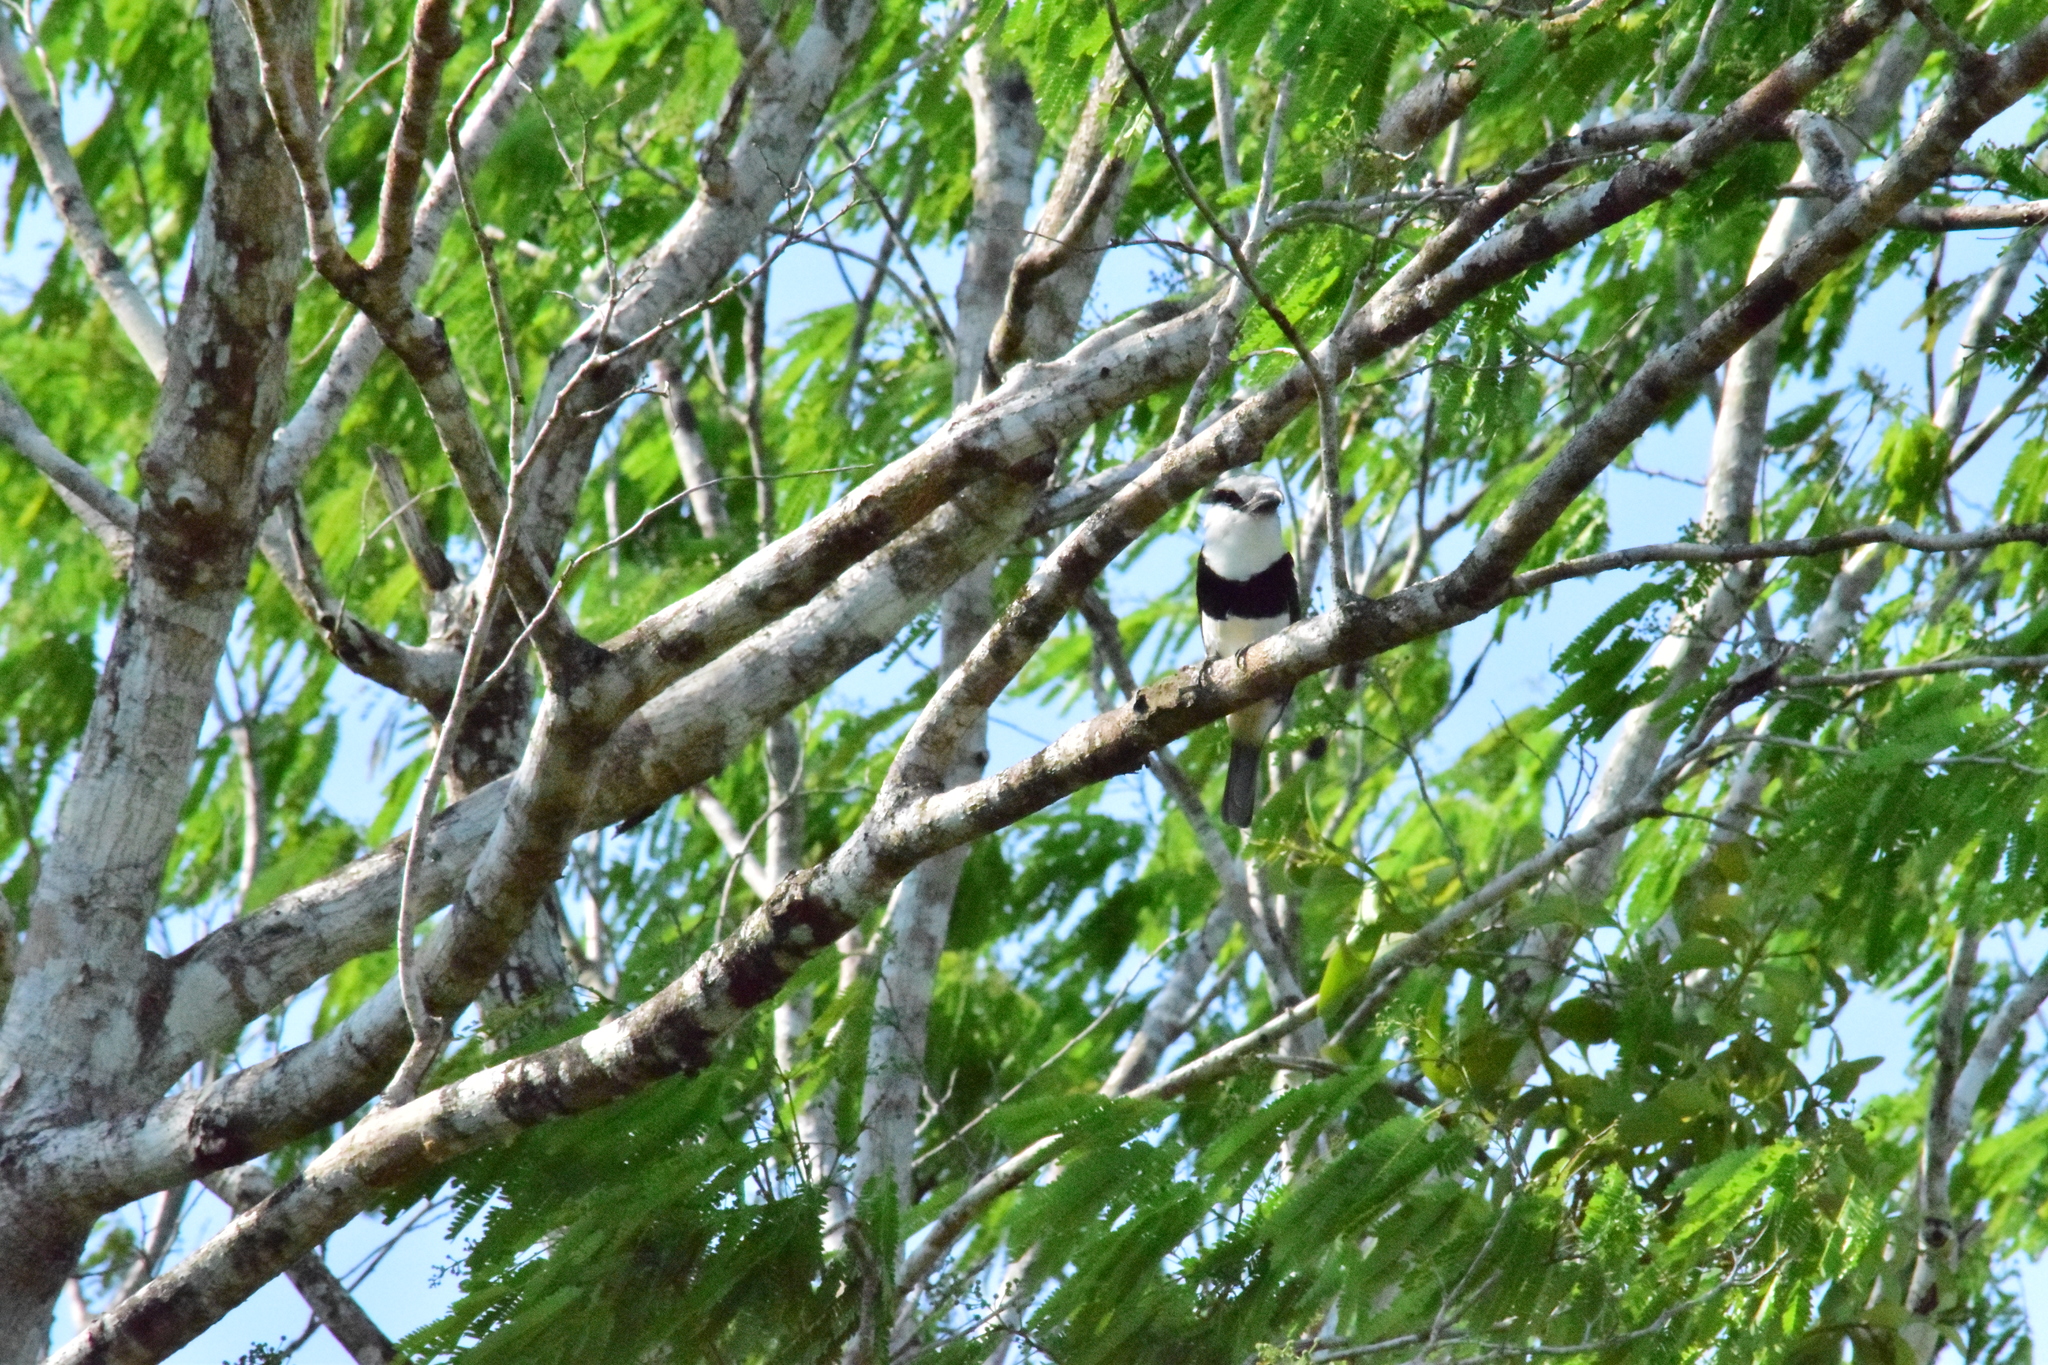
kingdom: Animalia
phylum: Chordata
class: Aves
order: Piciformes
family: Bucconidae
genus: Notharchus
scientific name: Notharchus hyperrhynchus
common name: White-necked puffbird
